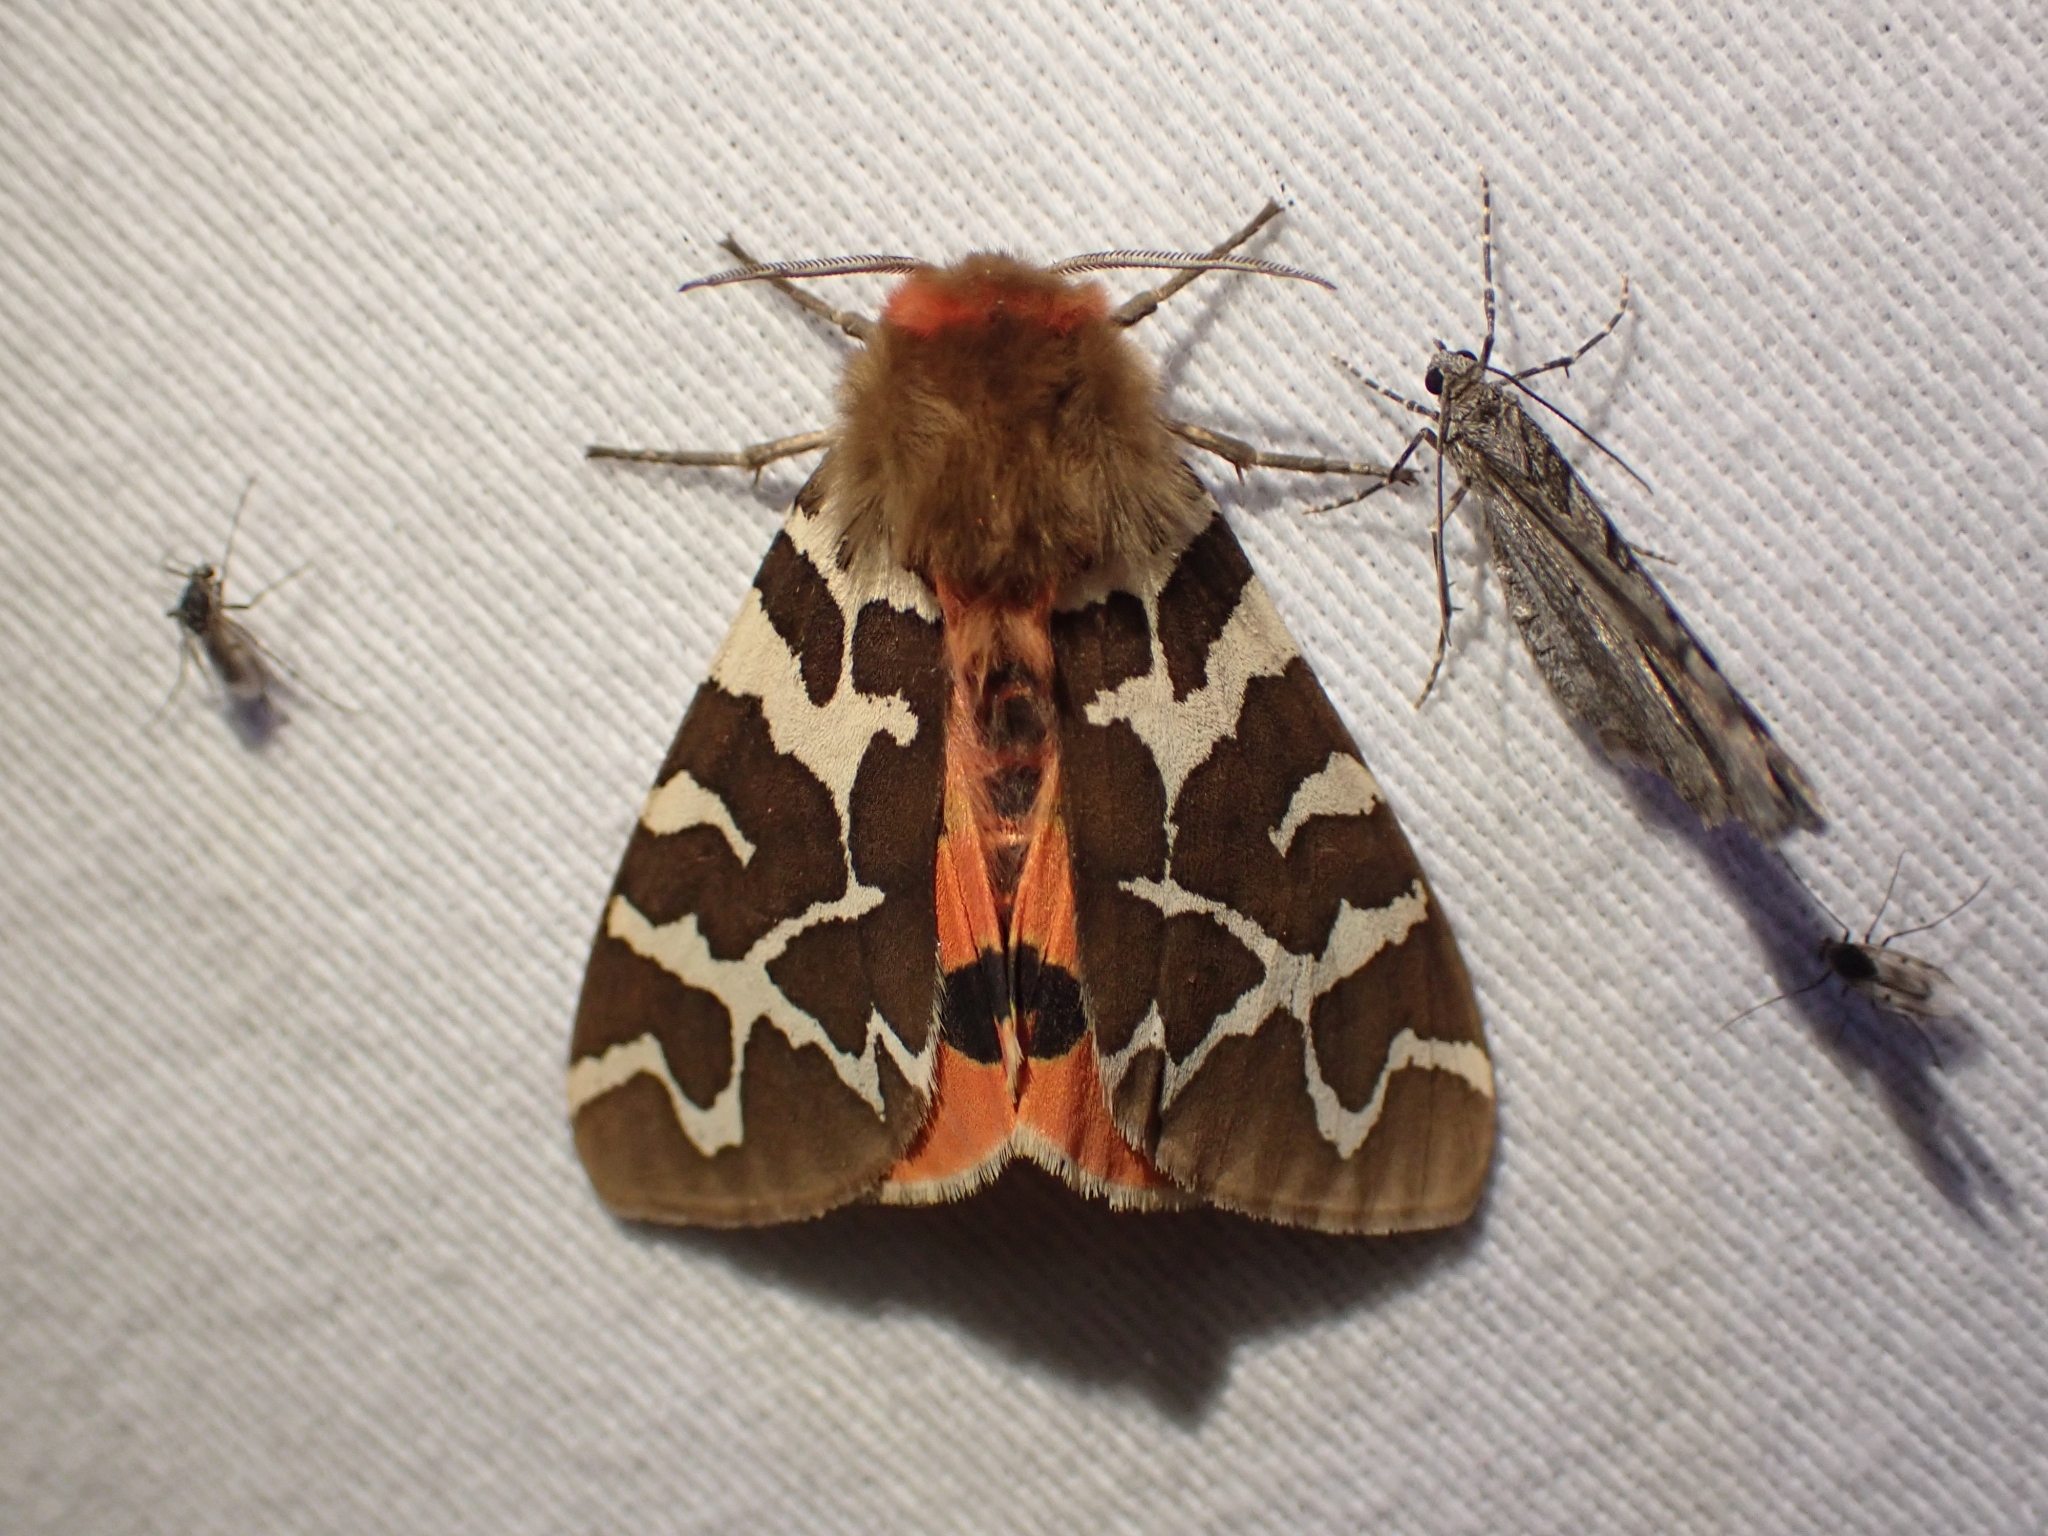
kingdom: Animalia
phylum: Arthropoda
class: Insecta
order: Lepidoptera
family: Erebidae
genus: Arctia
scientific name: Arctia opulenta
